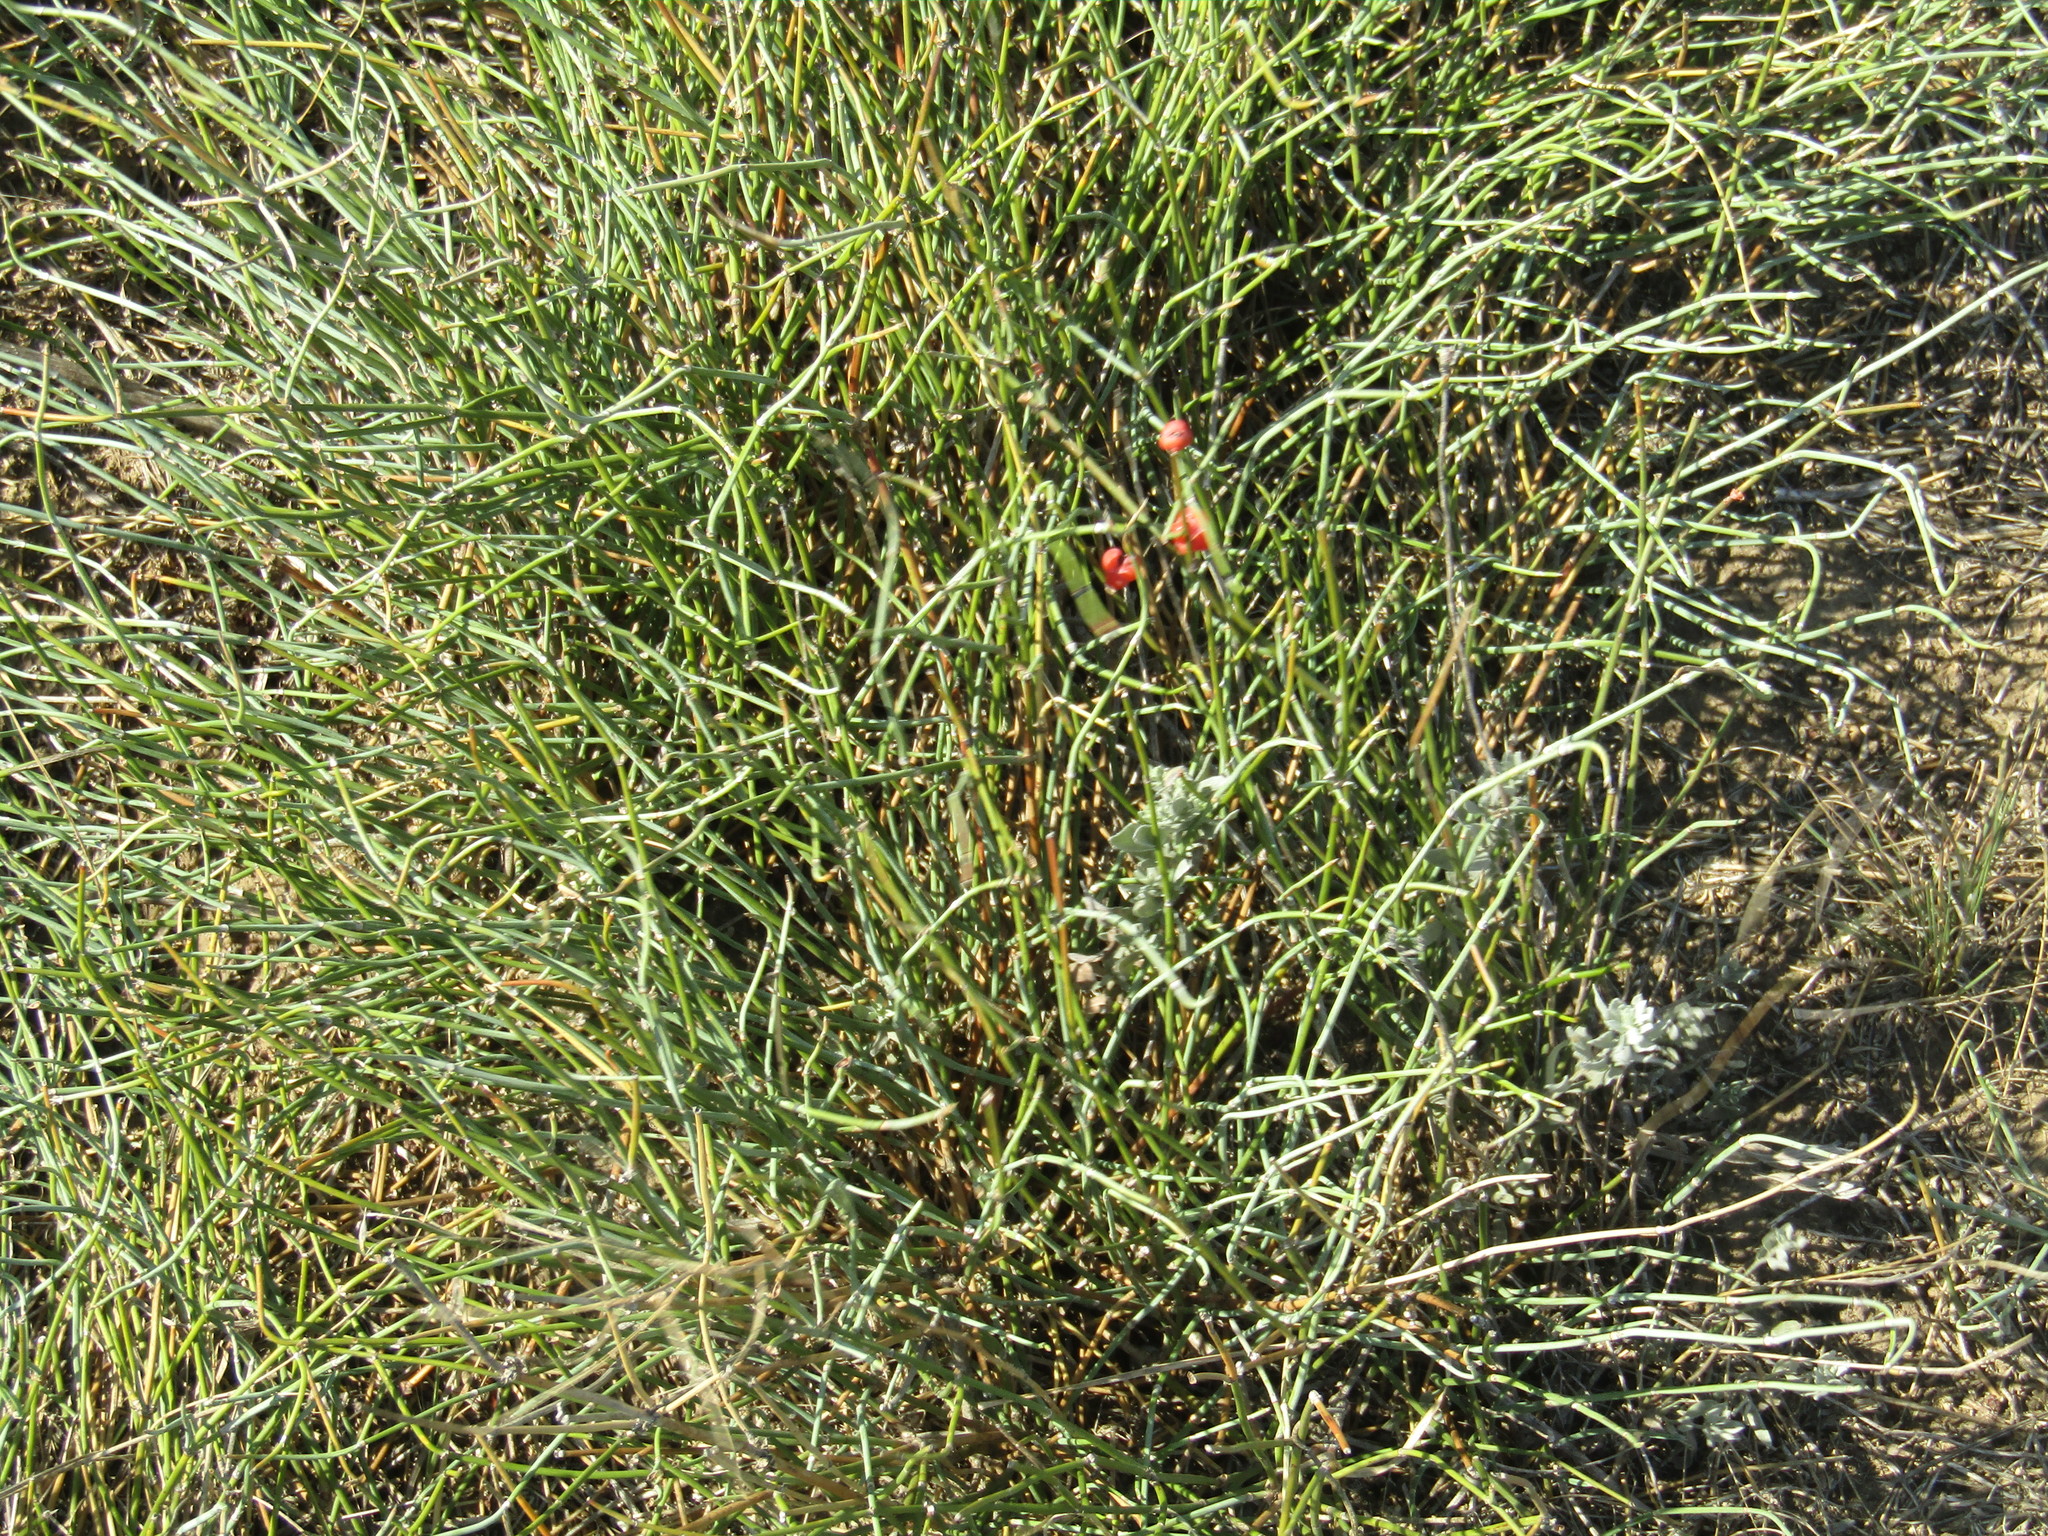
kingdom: Plantae
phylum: Tracheophyta
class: Gnetopsida
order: Ephedrales
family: Ephedraceae
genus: Ephedra
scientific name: Ephedra distachya
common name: Sea grape
